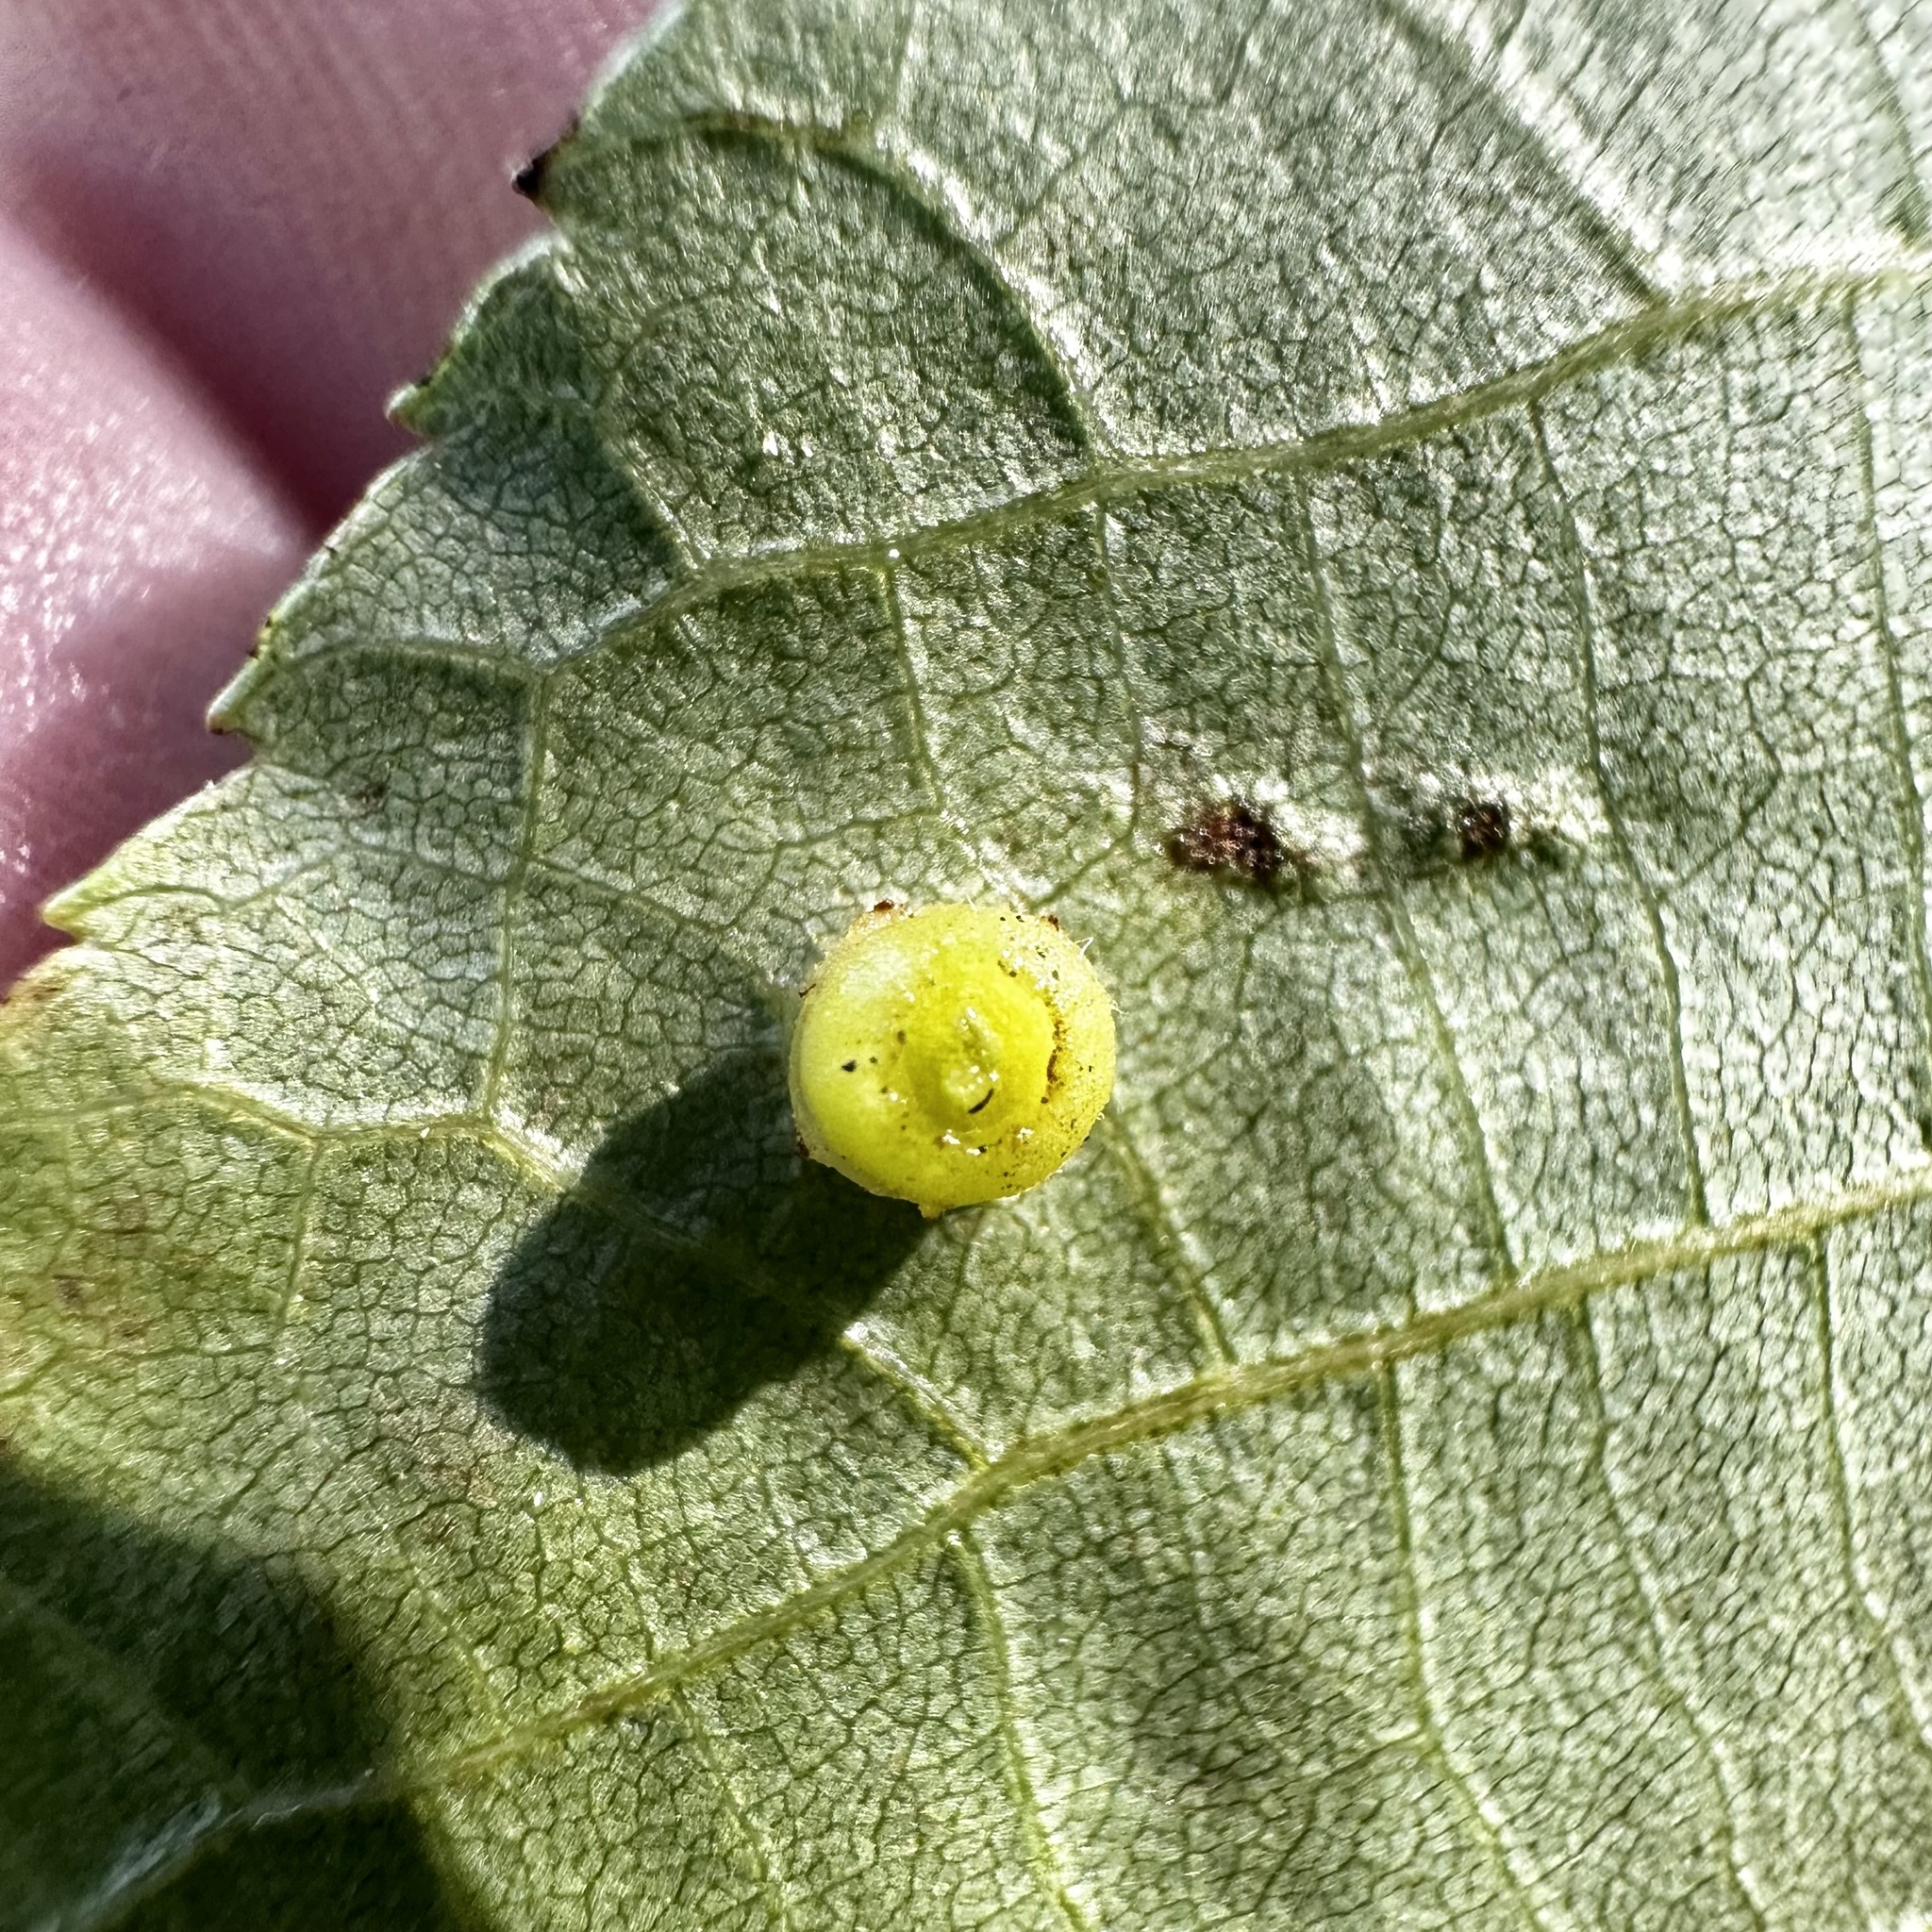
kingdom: Animalia
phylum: Arthropoda
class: Insecta
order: Diptera
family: Cecidomyiidae
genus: Caryomyia
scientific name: Caryomyia melicrustum
